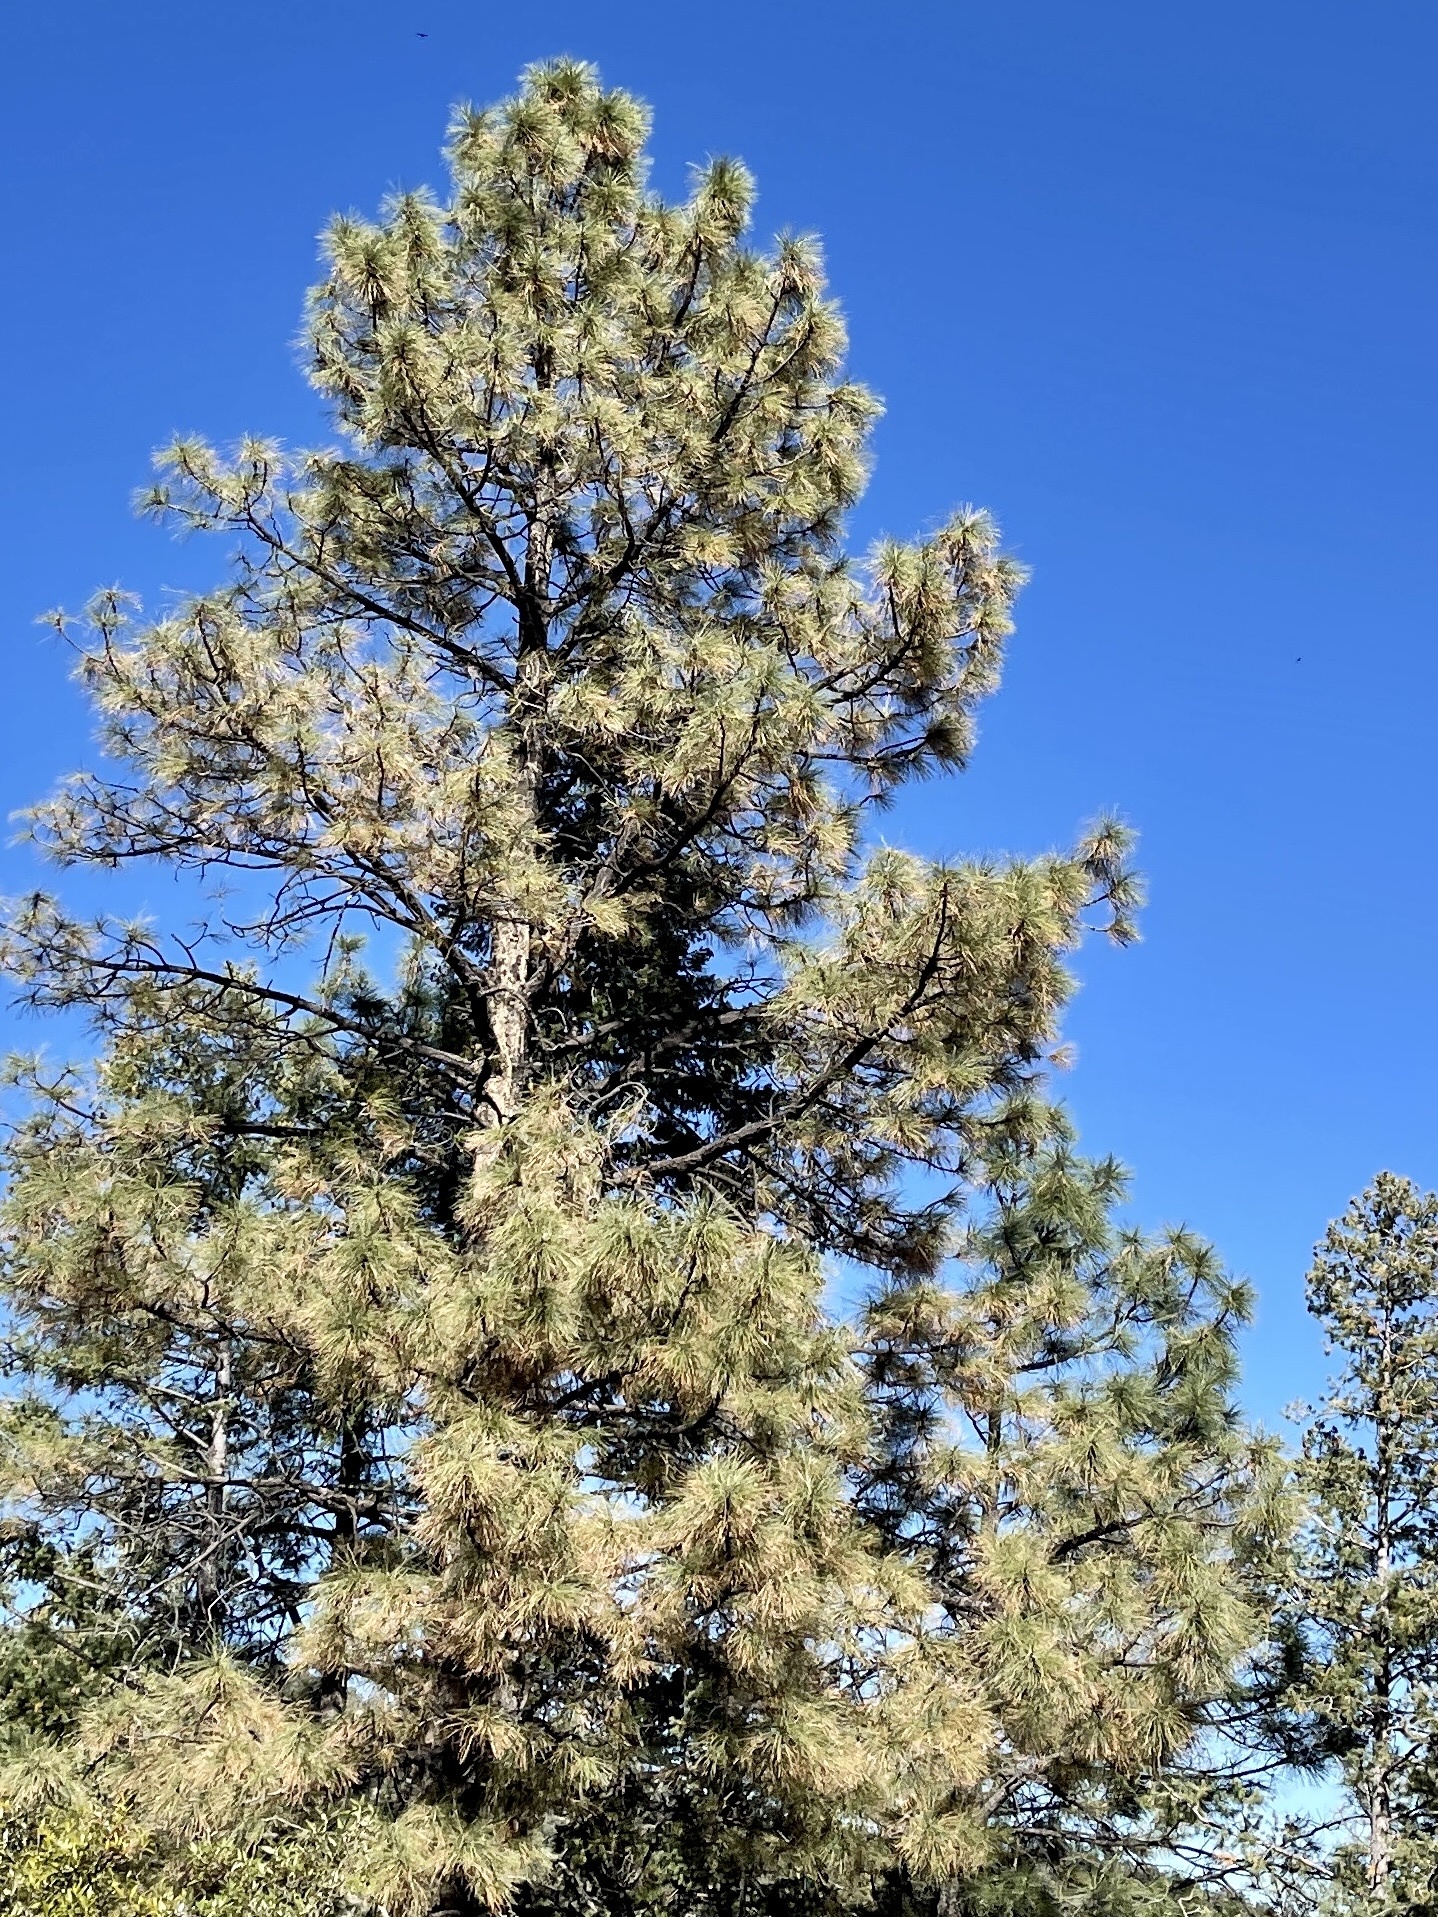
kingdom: Plantae
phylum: Tracheophyta
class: Pinopsida
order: Pinales
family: Pinaceae
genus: Pinus
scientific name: Pinus ponderosa
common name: Western yellow-pine
